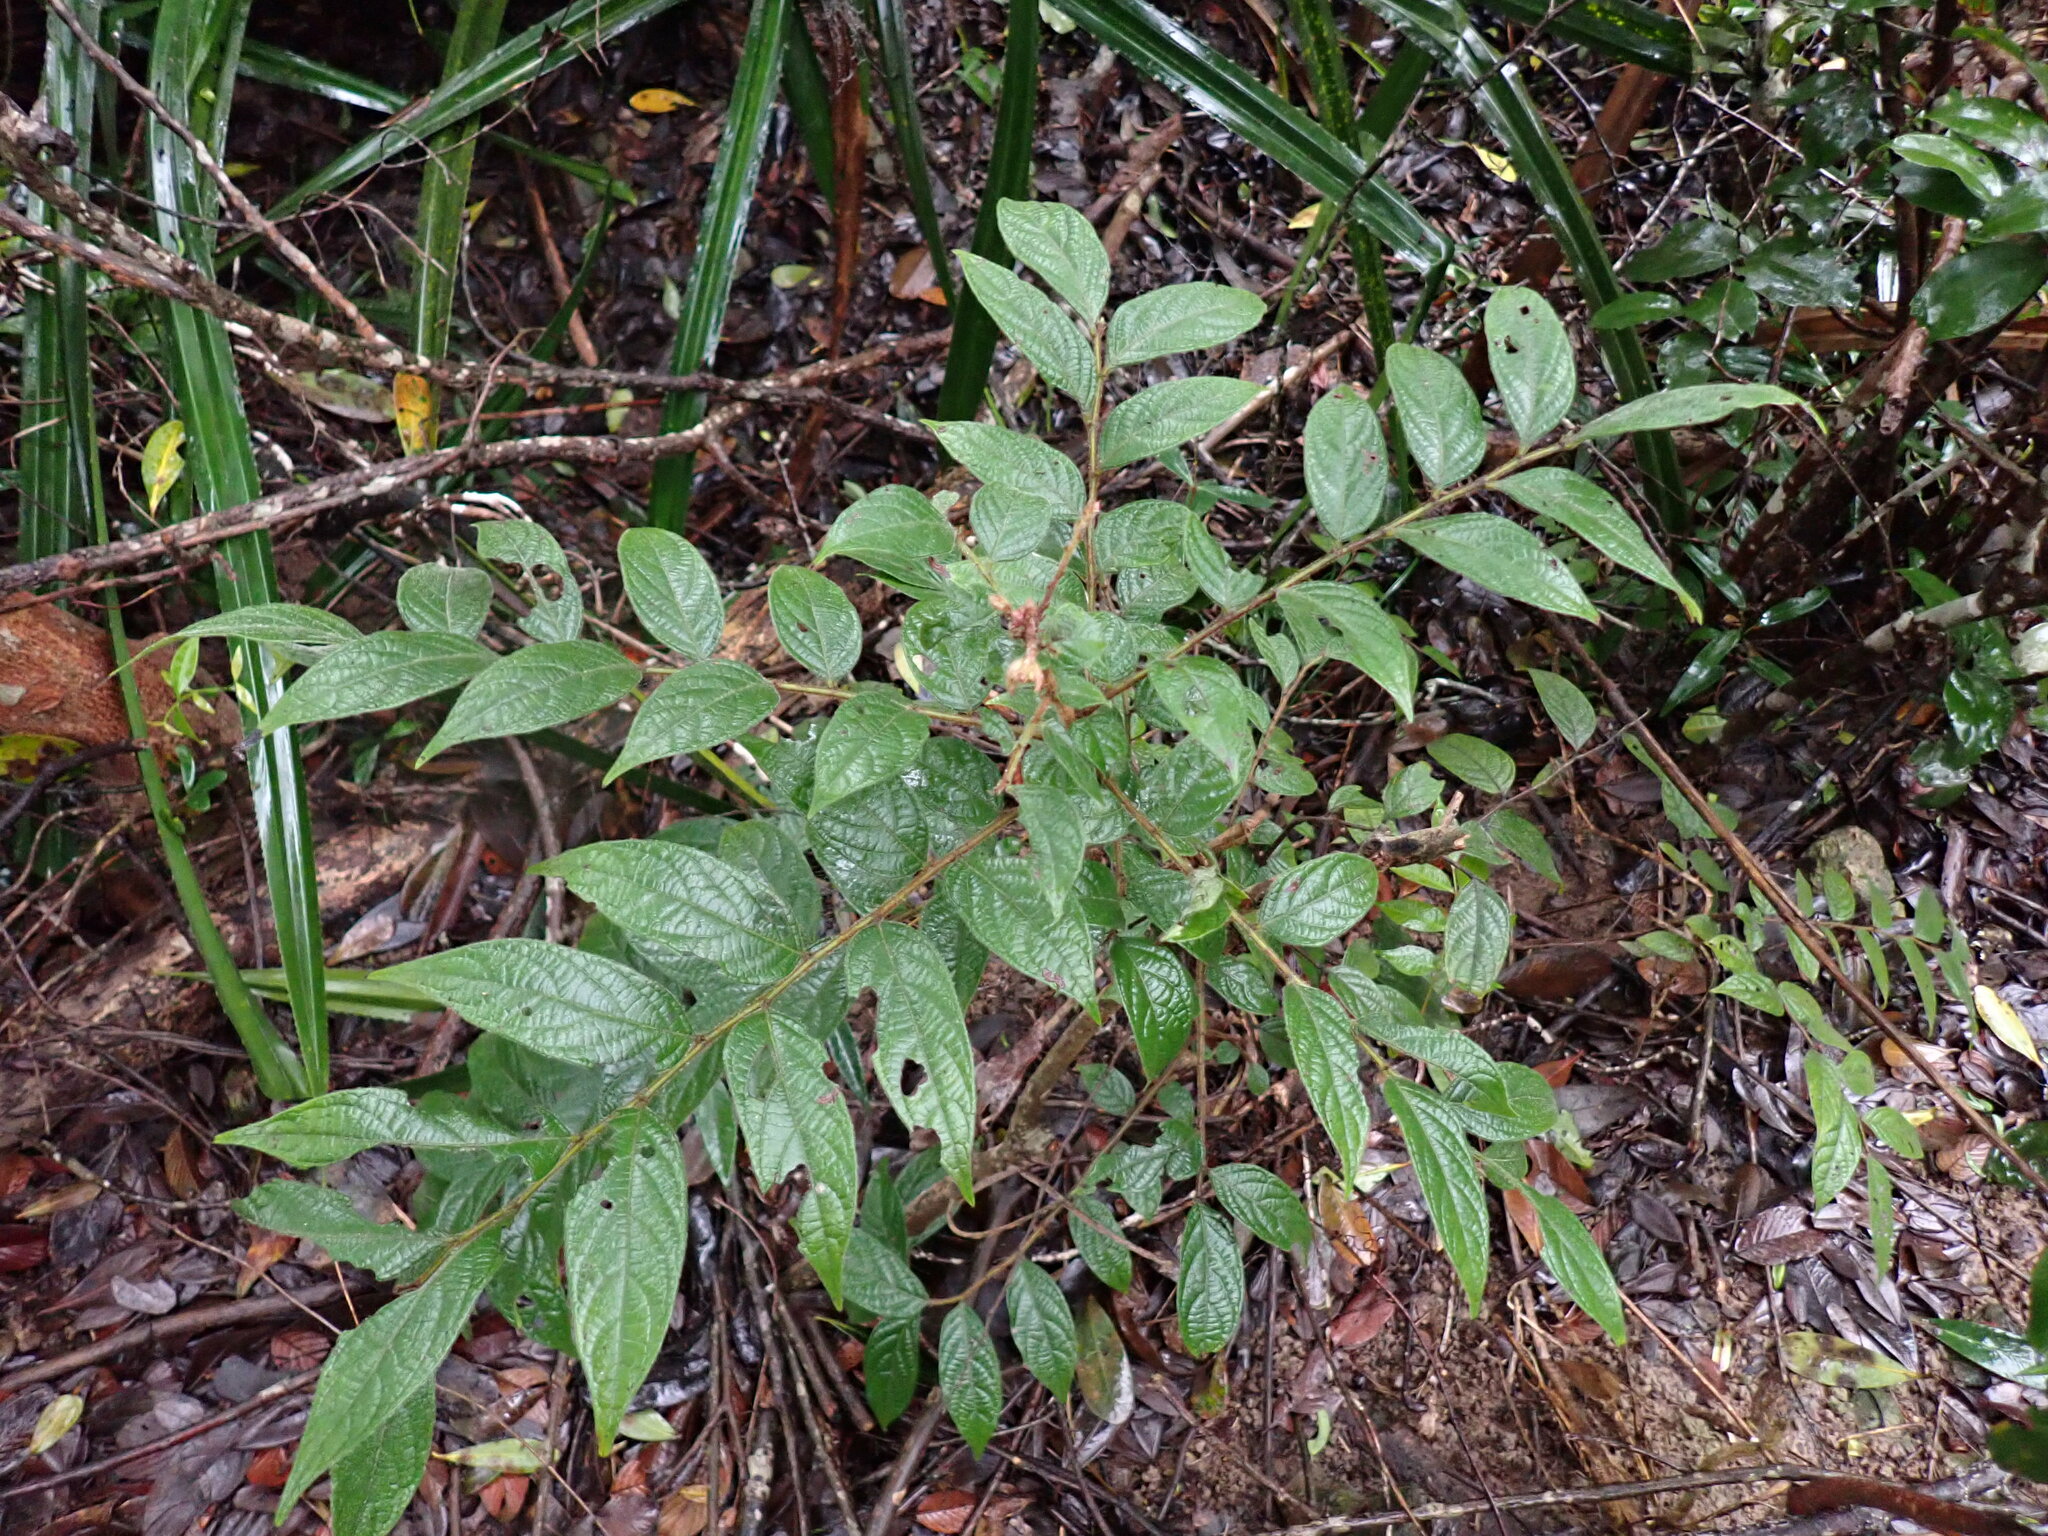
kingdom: Plantae
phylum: Tracheophyta
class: Magnoliopsida
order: Malpighiales
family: Phyllanthaceae
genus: Glochidion
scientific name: Glochidion eriocarpum
